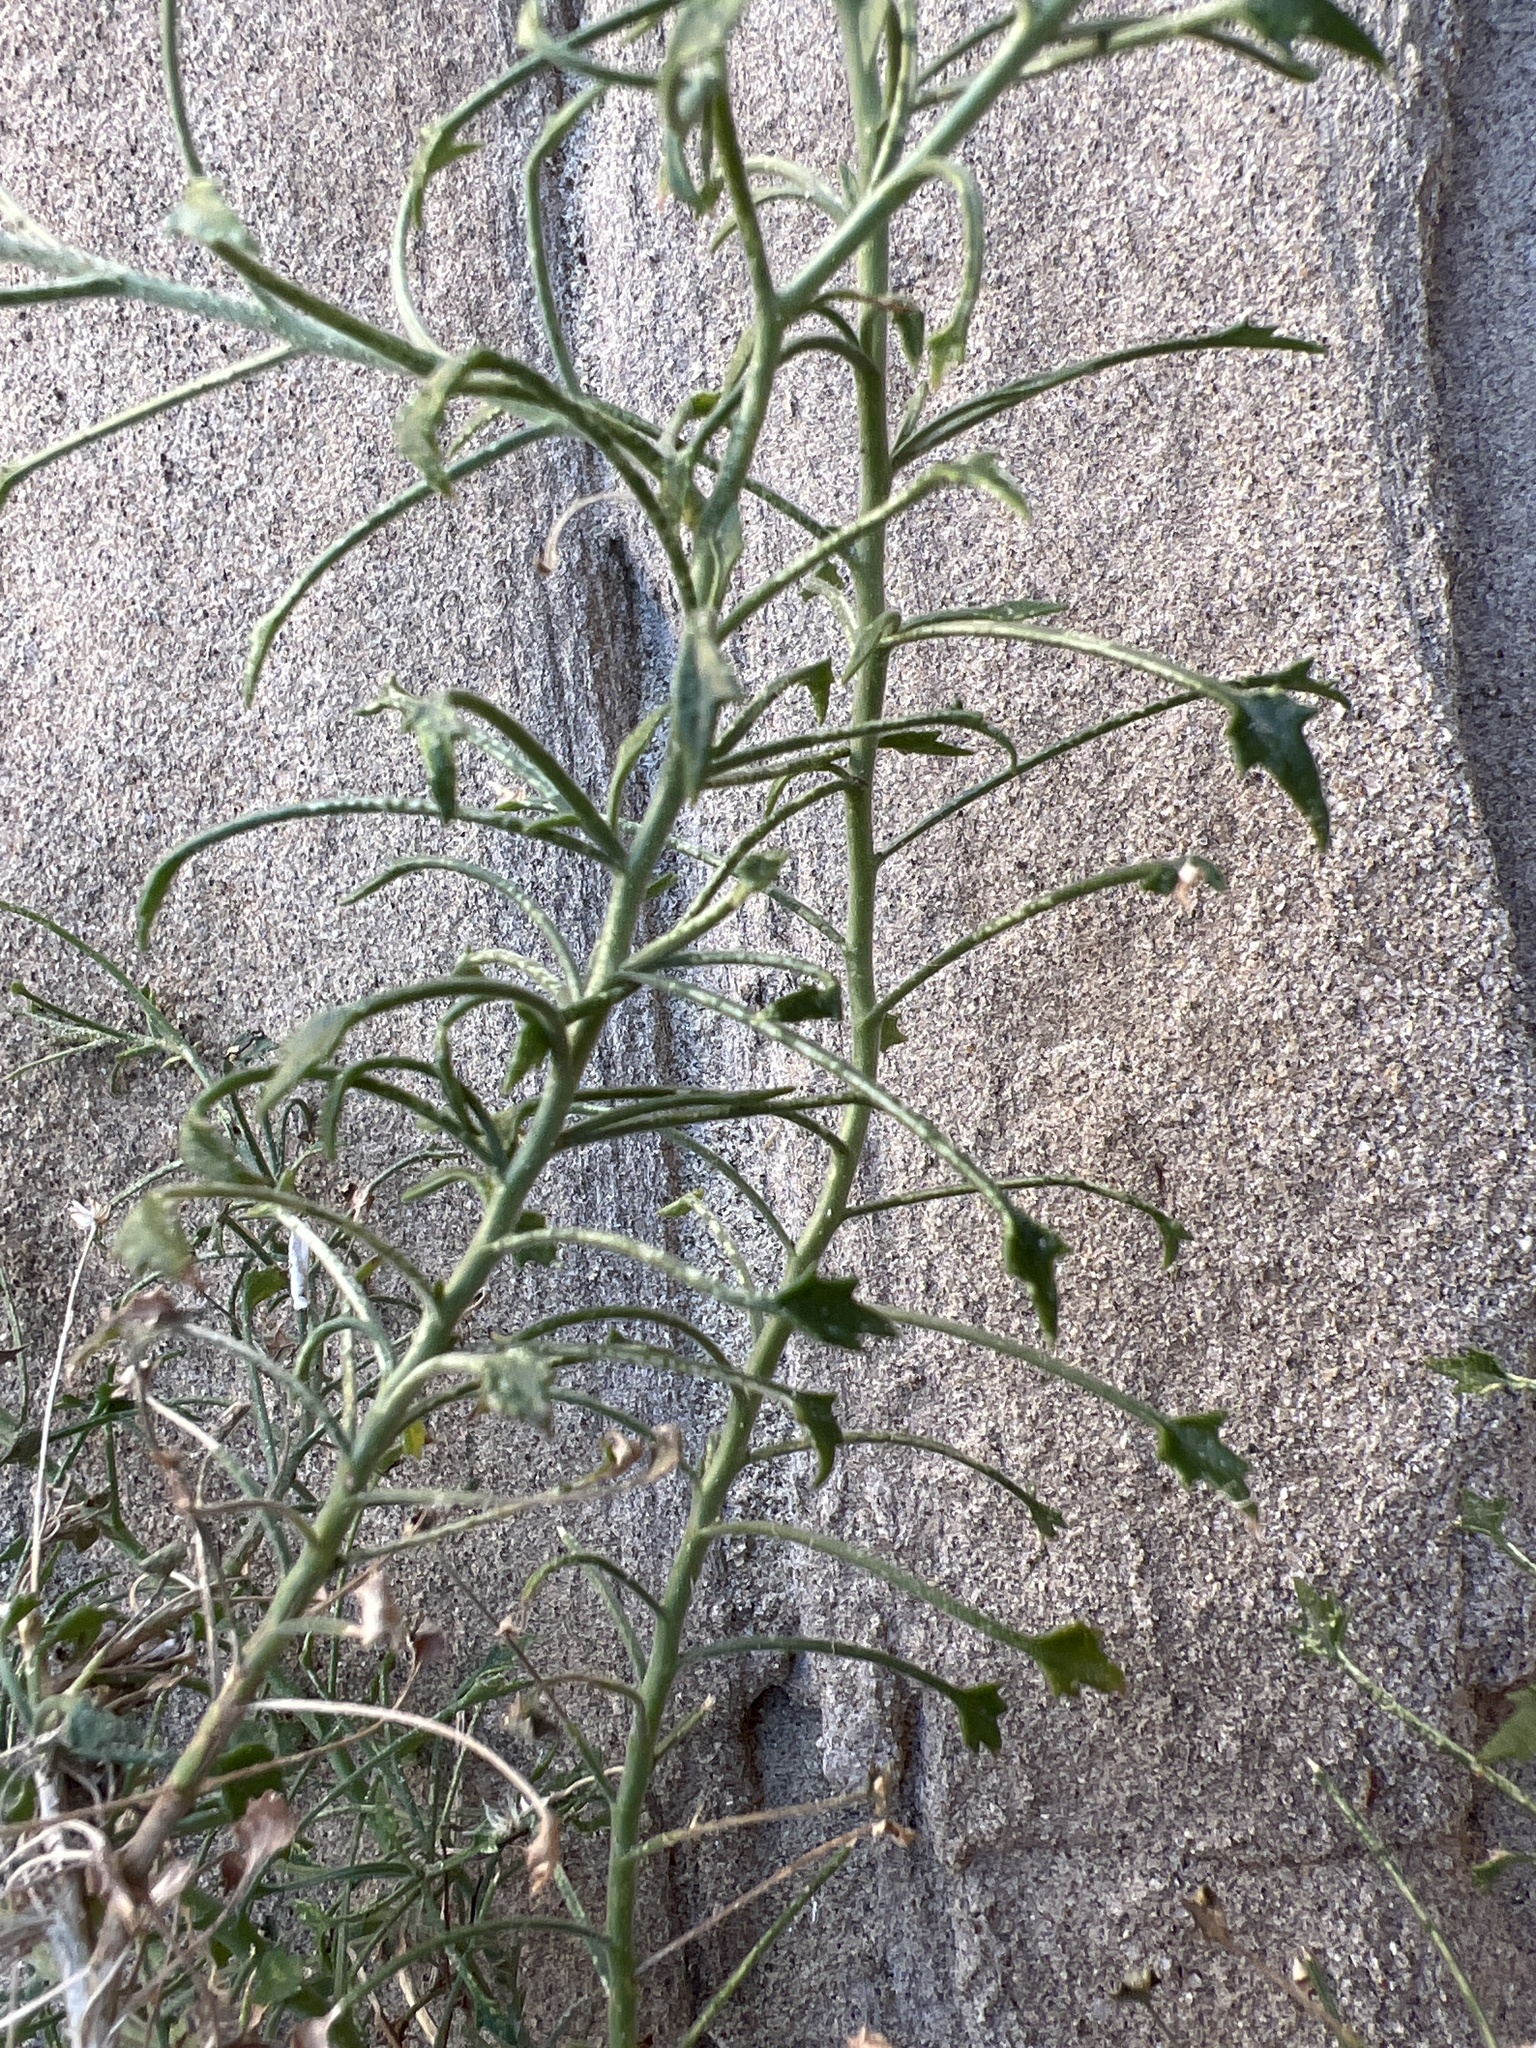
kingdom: Plantae
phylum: Tracheophyta
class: Magnoliopsida
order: Asterales
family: Asteraceae
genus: Pleurocoronis
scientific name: Pleurocoronis pluriseta
